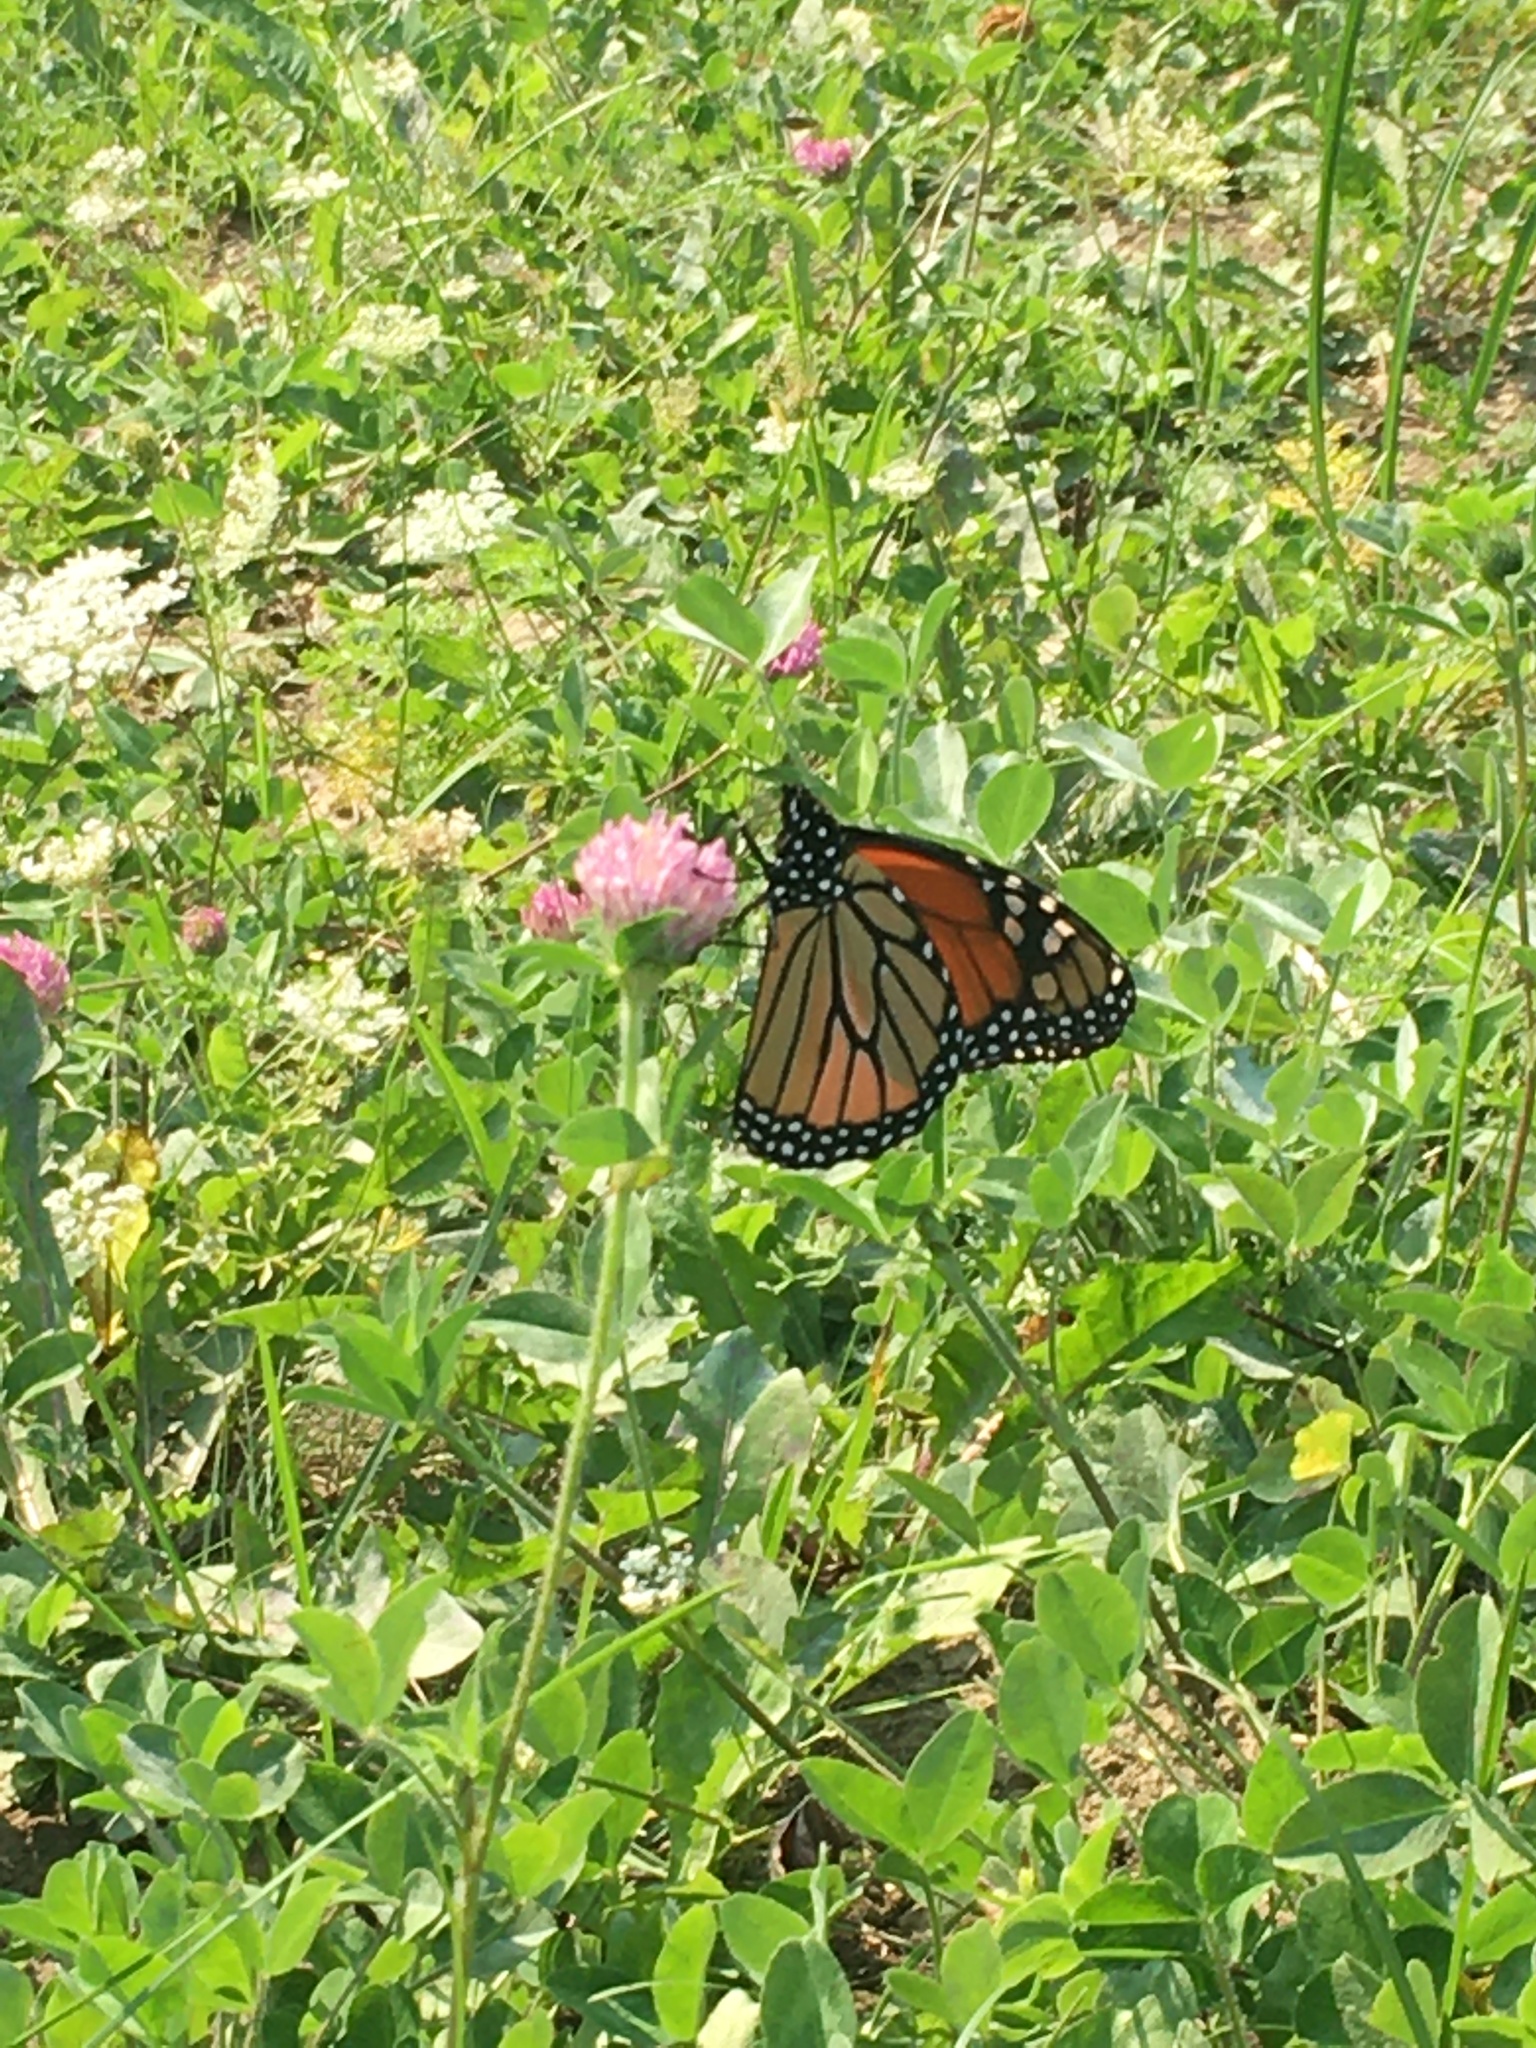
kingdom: Animalia
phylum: Arthropoda
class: Insecta
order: Lepidoptera
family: Nymphalidae
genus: Danaus
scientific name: Danaus plexippus
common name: Monarch
